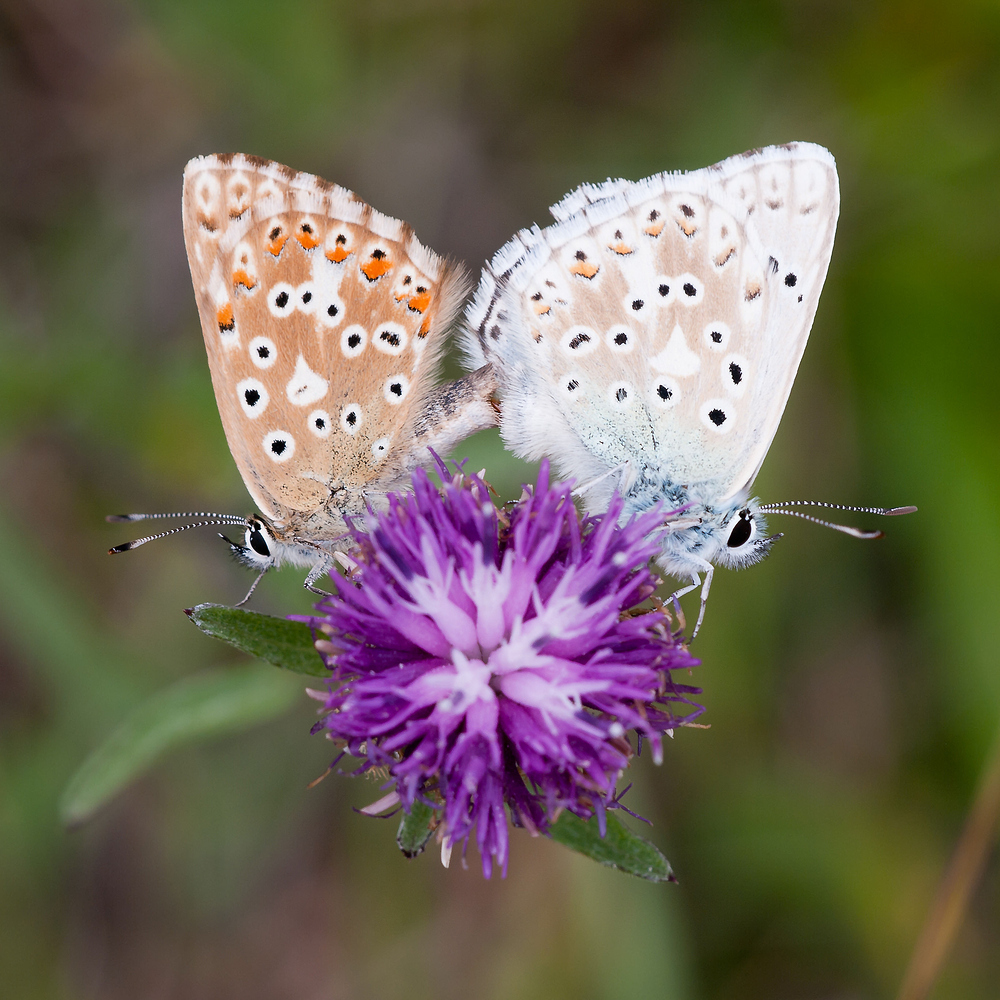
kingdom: Animalia
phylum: Arthropoda
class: Insecta
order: Lepidoptera
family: Lycaenidae
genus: Lysandra
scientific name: Lysandra coridon
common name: Chalkhill blue
